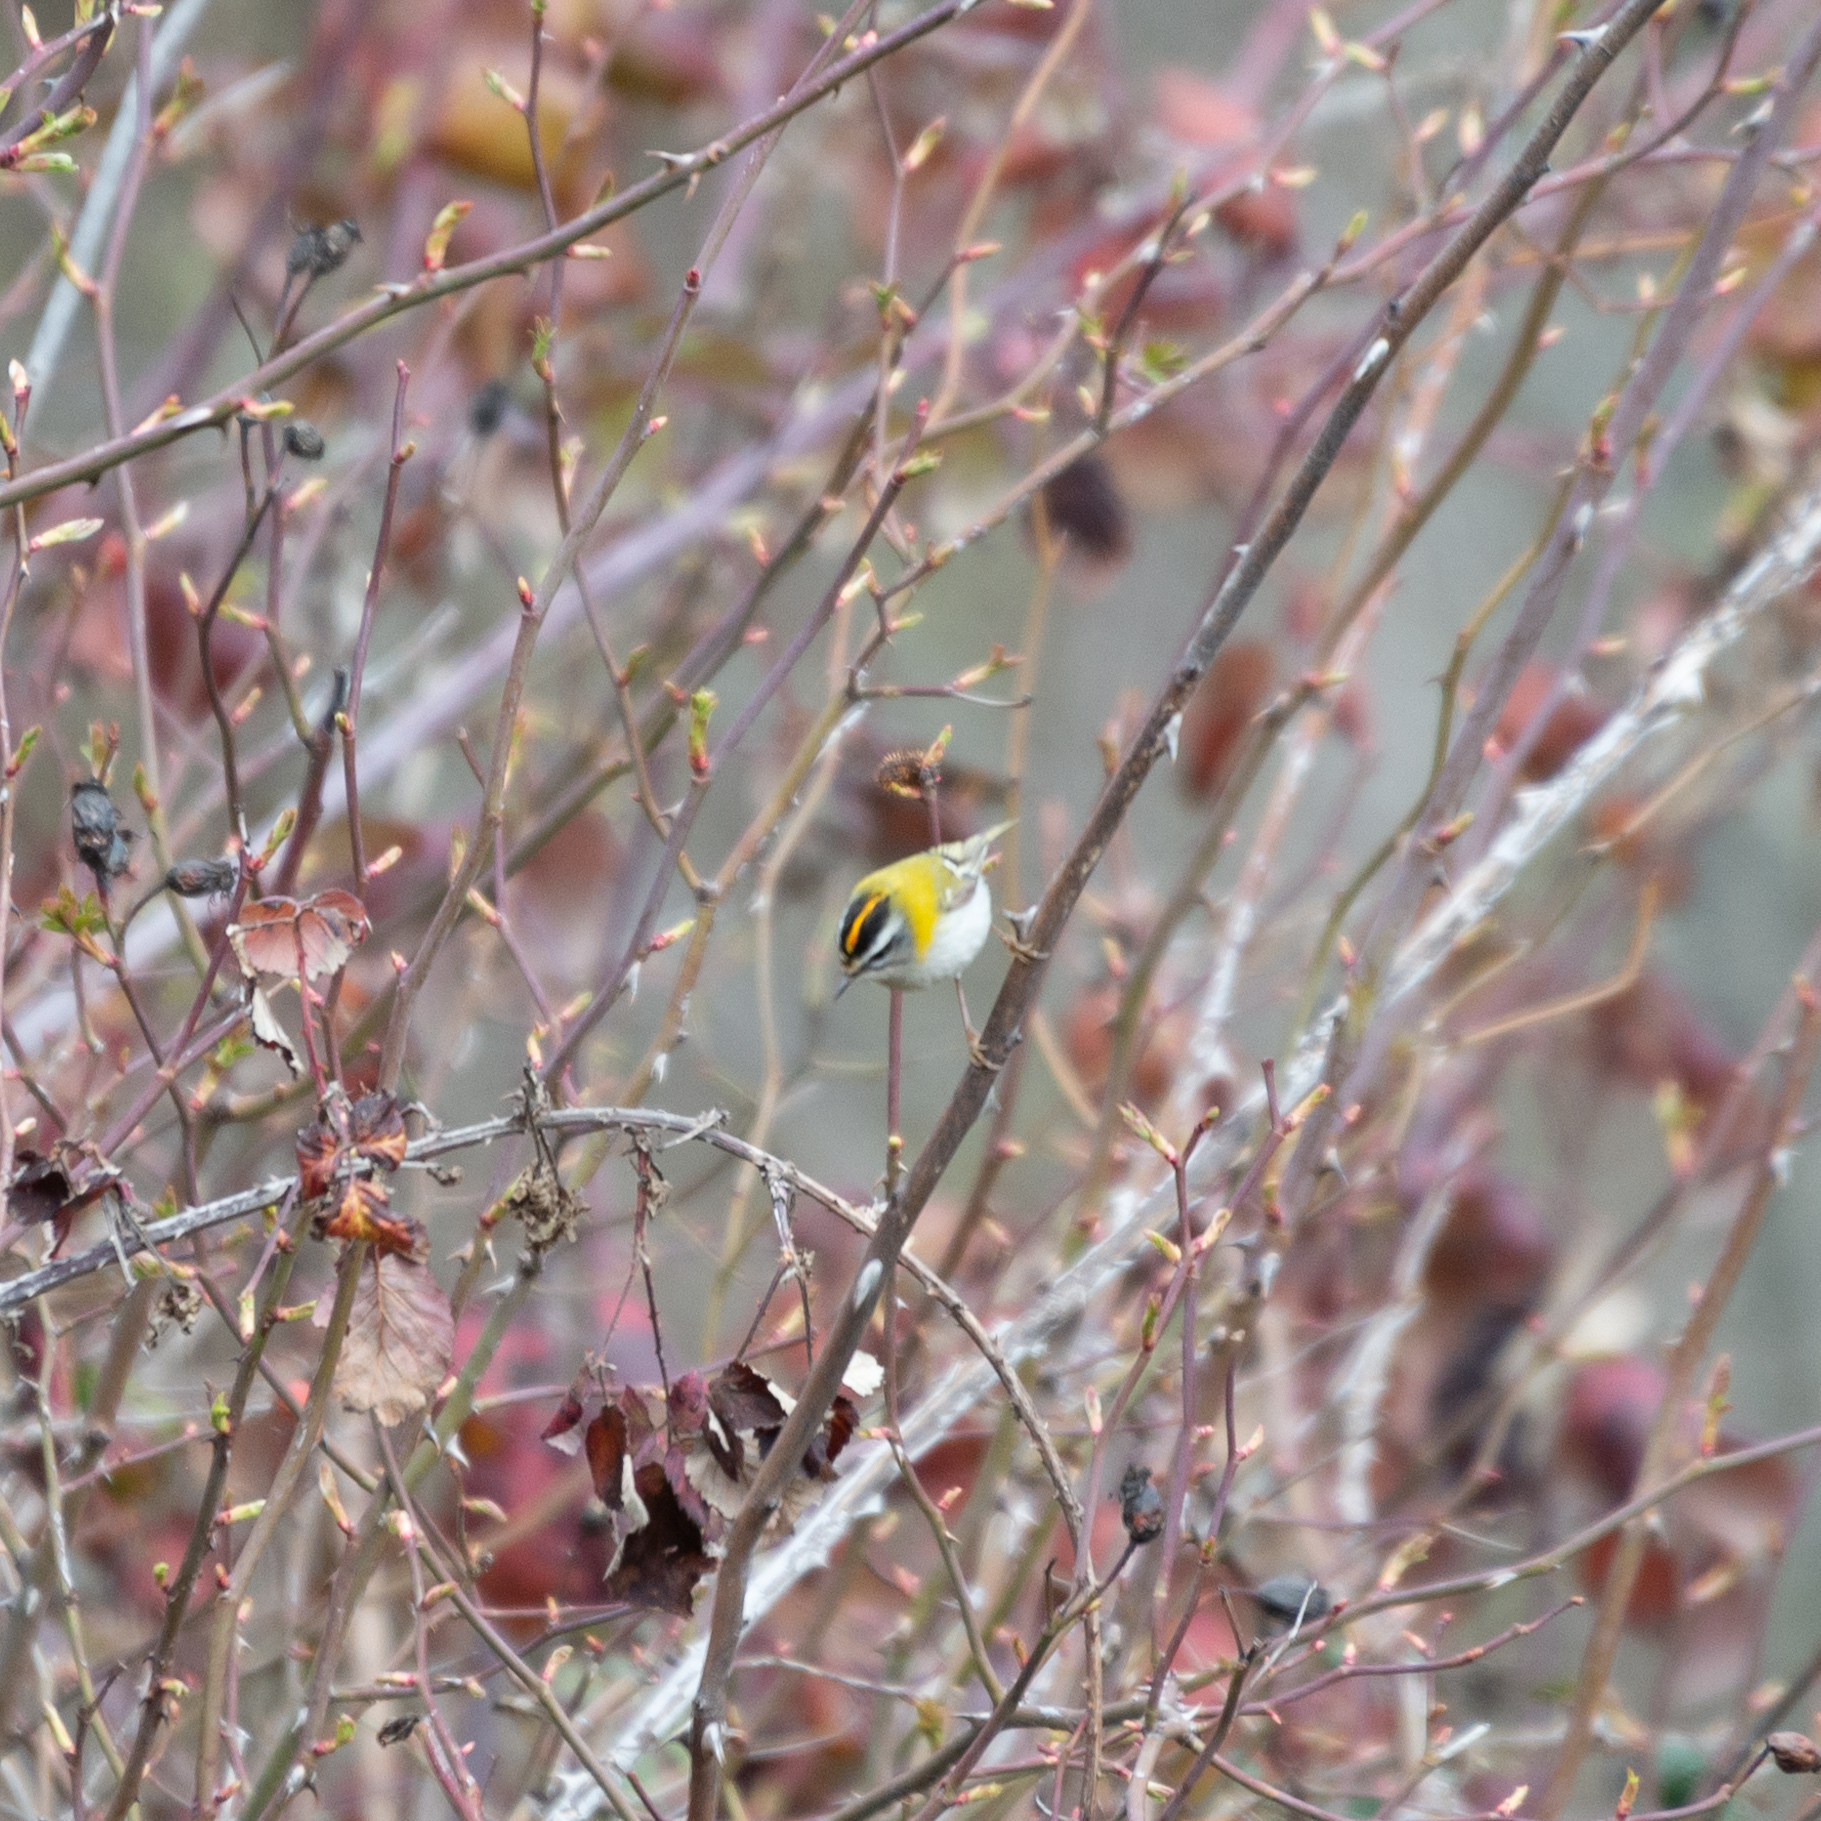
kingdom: Animalia
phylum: Chordata
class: Aves
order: Passeriformes
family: Regulidae
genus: Regulus
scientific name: Regulus ignicapilla
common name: Firecrest
